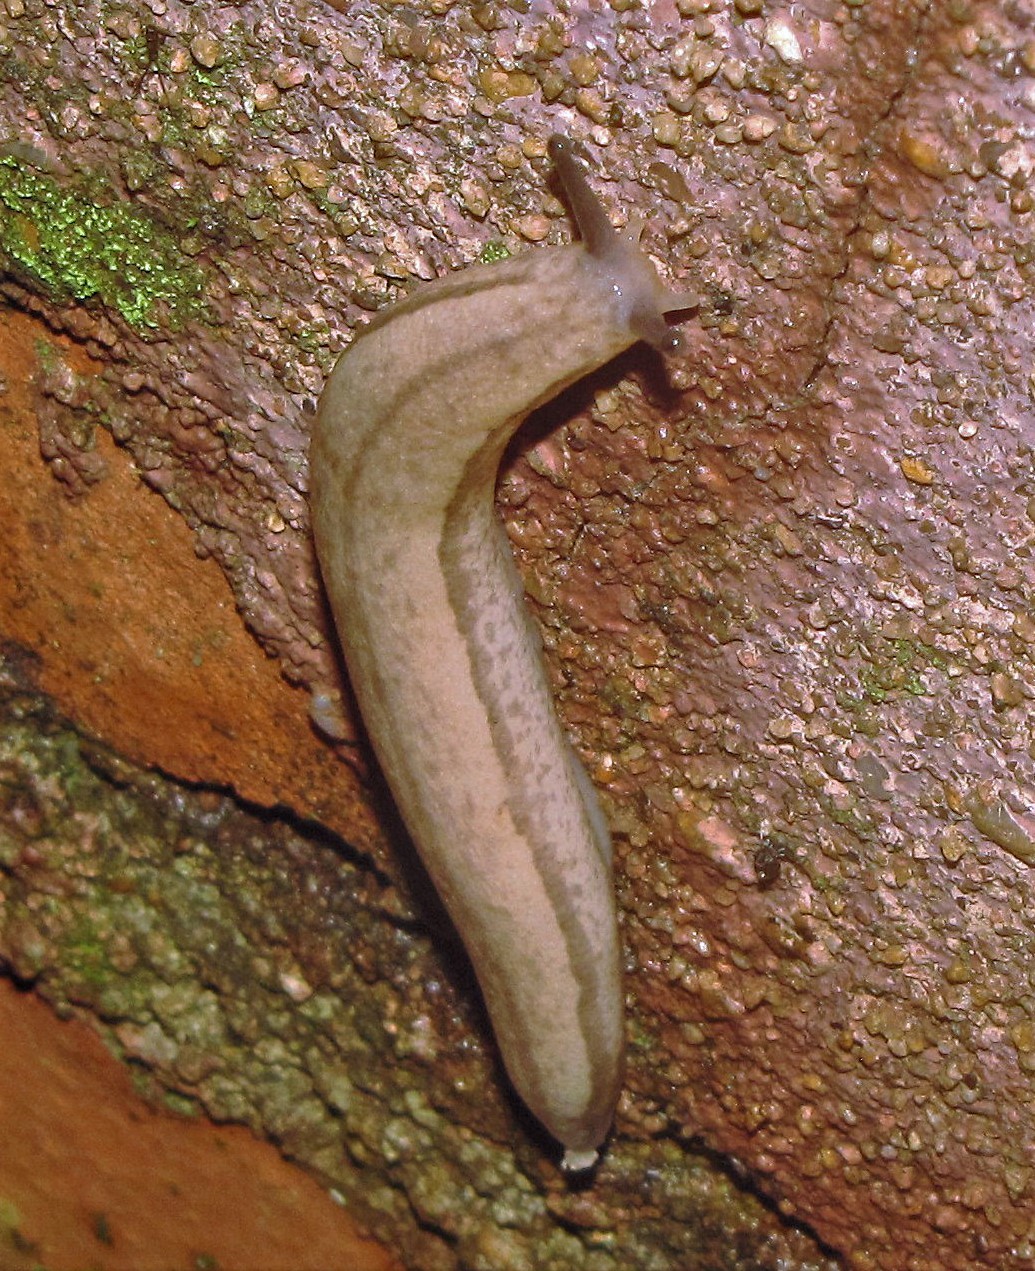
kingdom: Animalia
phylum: Mollusca
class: Gastropoda
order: Stylommatophora
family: Philomycidae
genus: Meghimatium
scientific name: Meghimatium pictum
